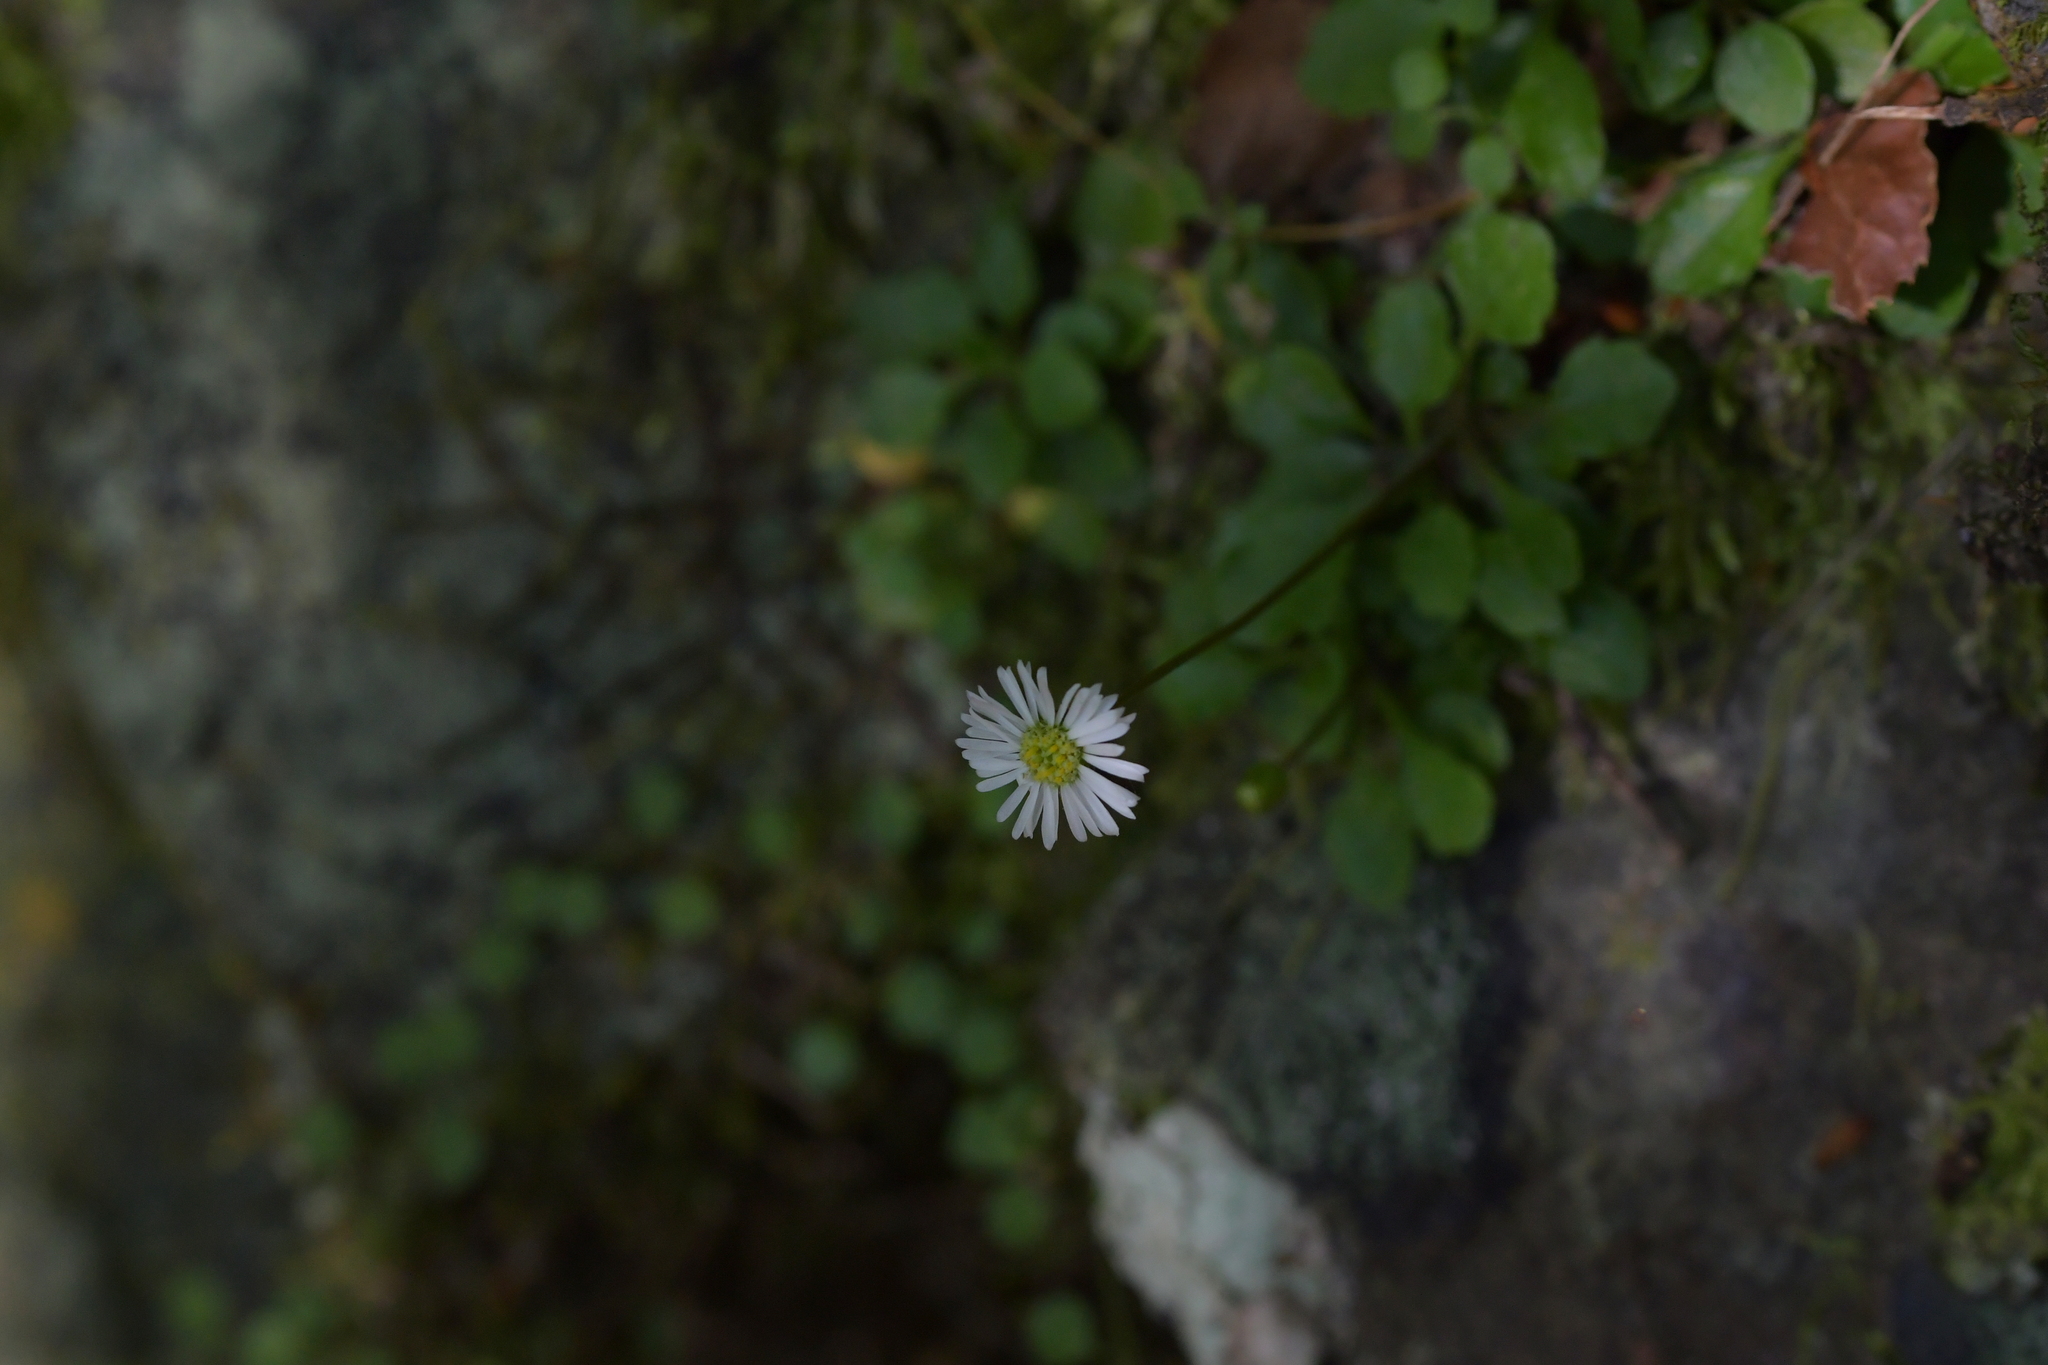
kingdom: Plantae
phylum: Tracheophyta
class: Magnoliopsida
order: Asterales
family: Asteraceae
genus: Lagenophora
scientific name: Lagenophora pumila
